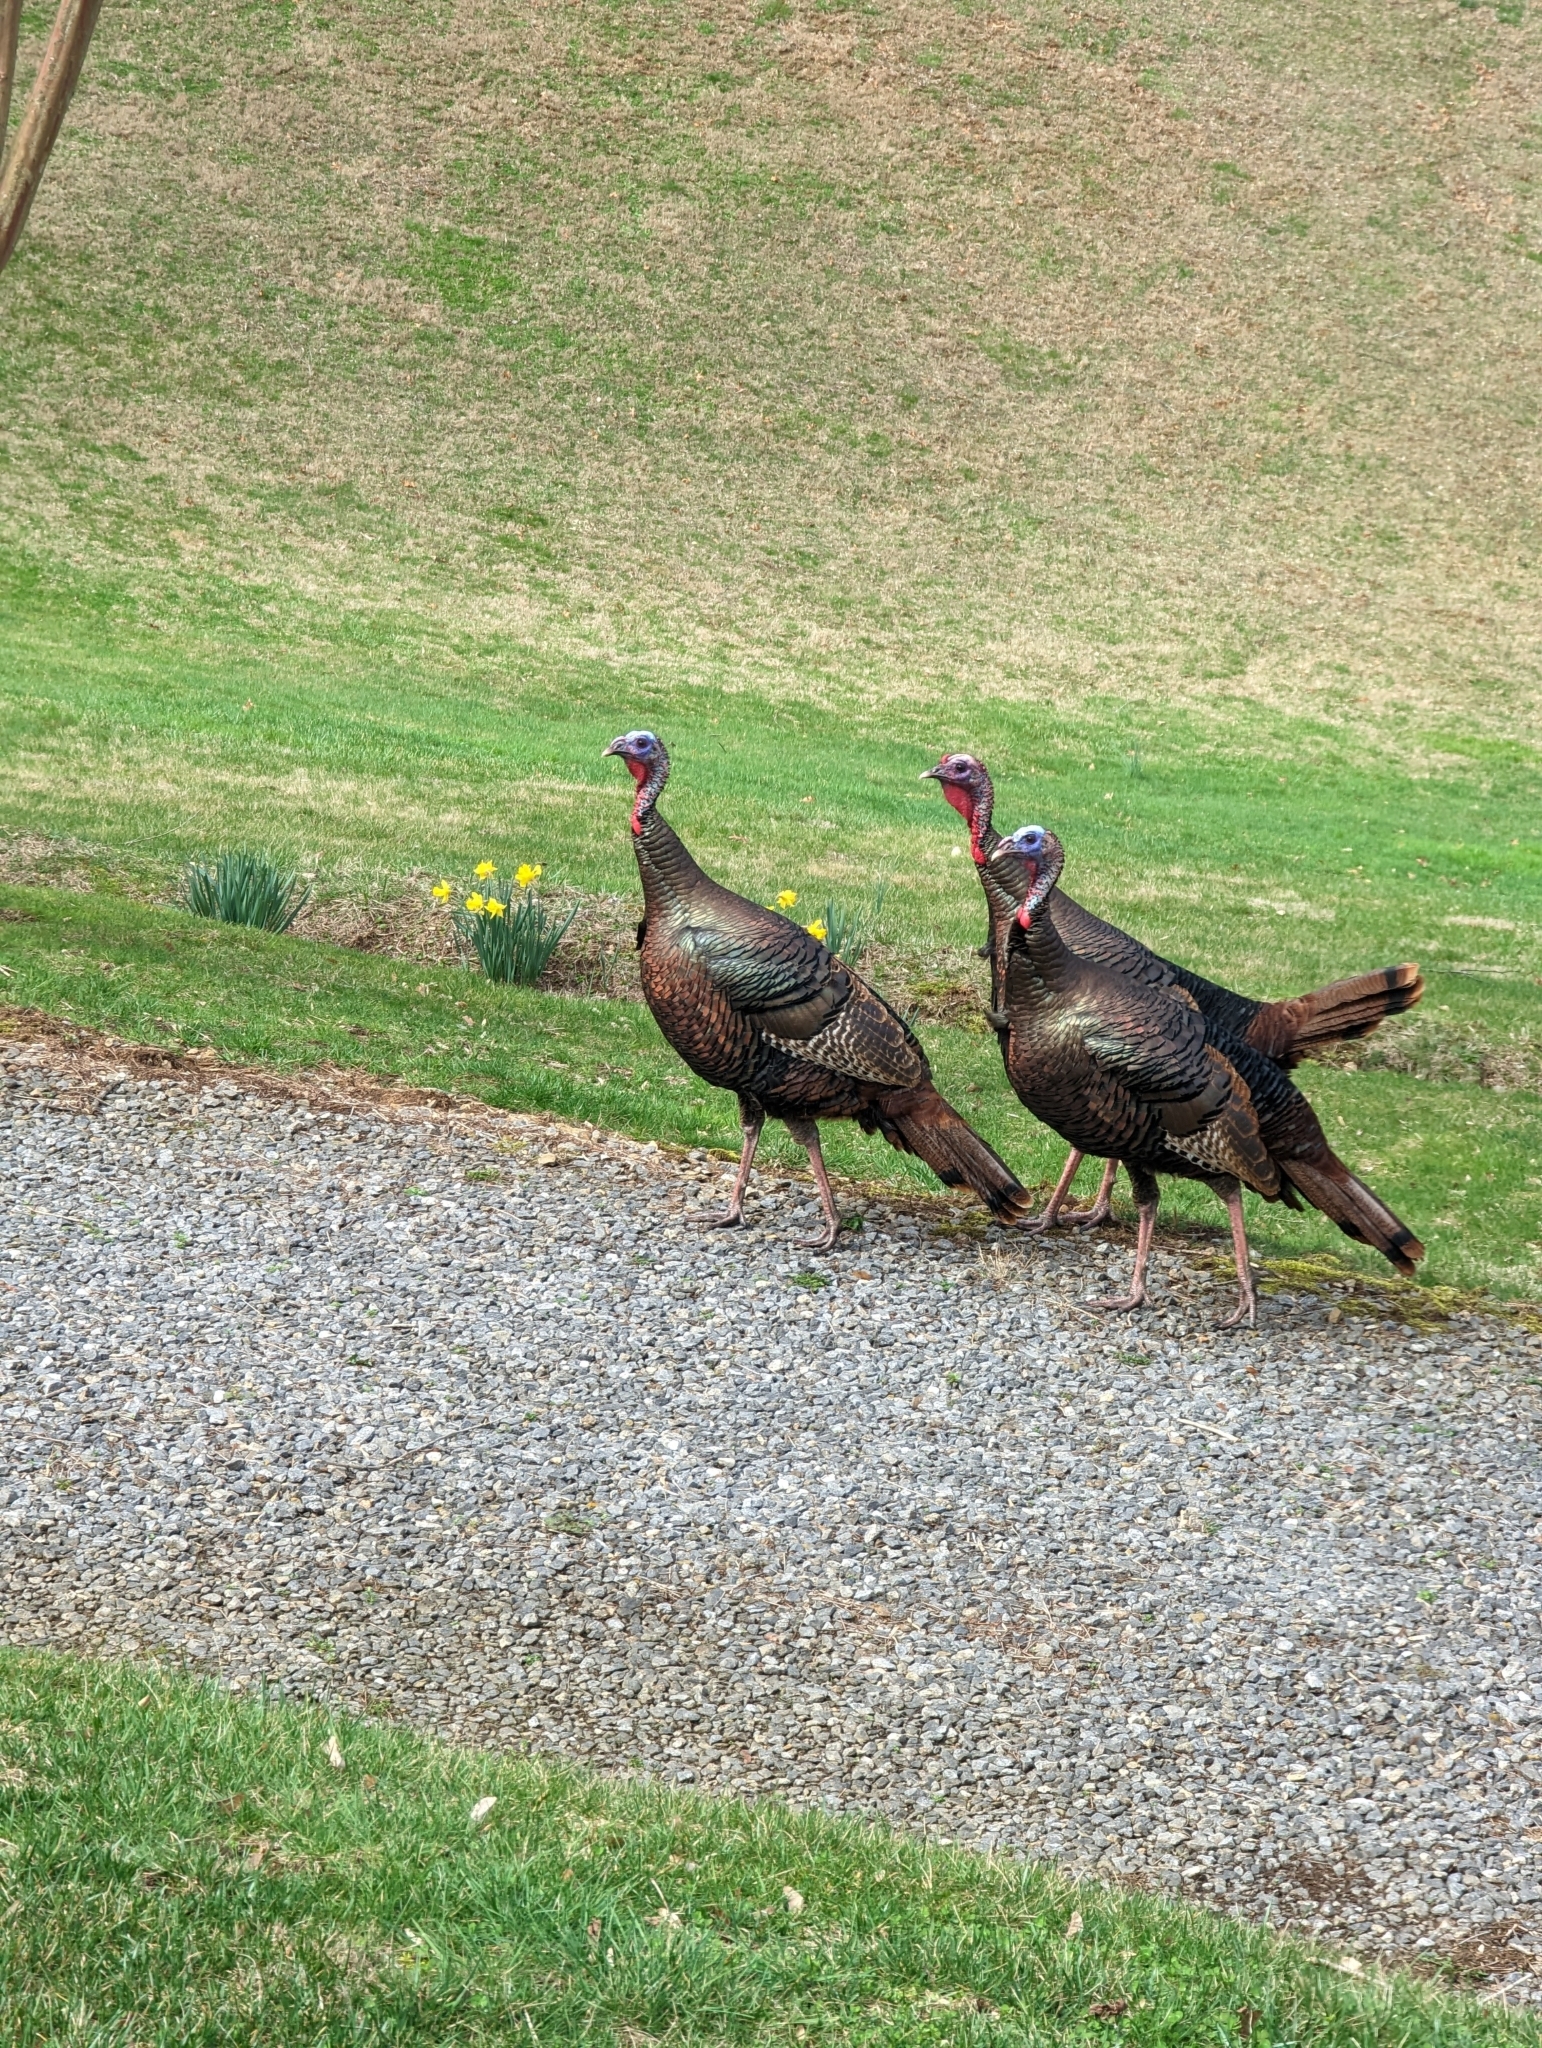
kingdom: Animalia
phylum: Chordata
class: Aves
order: Galliformes
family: Phasianidae
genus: Meleagris
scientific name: Meleagris gallopavo
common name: Wild turkey
